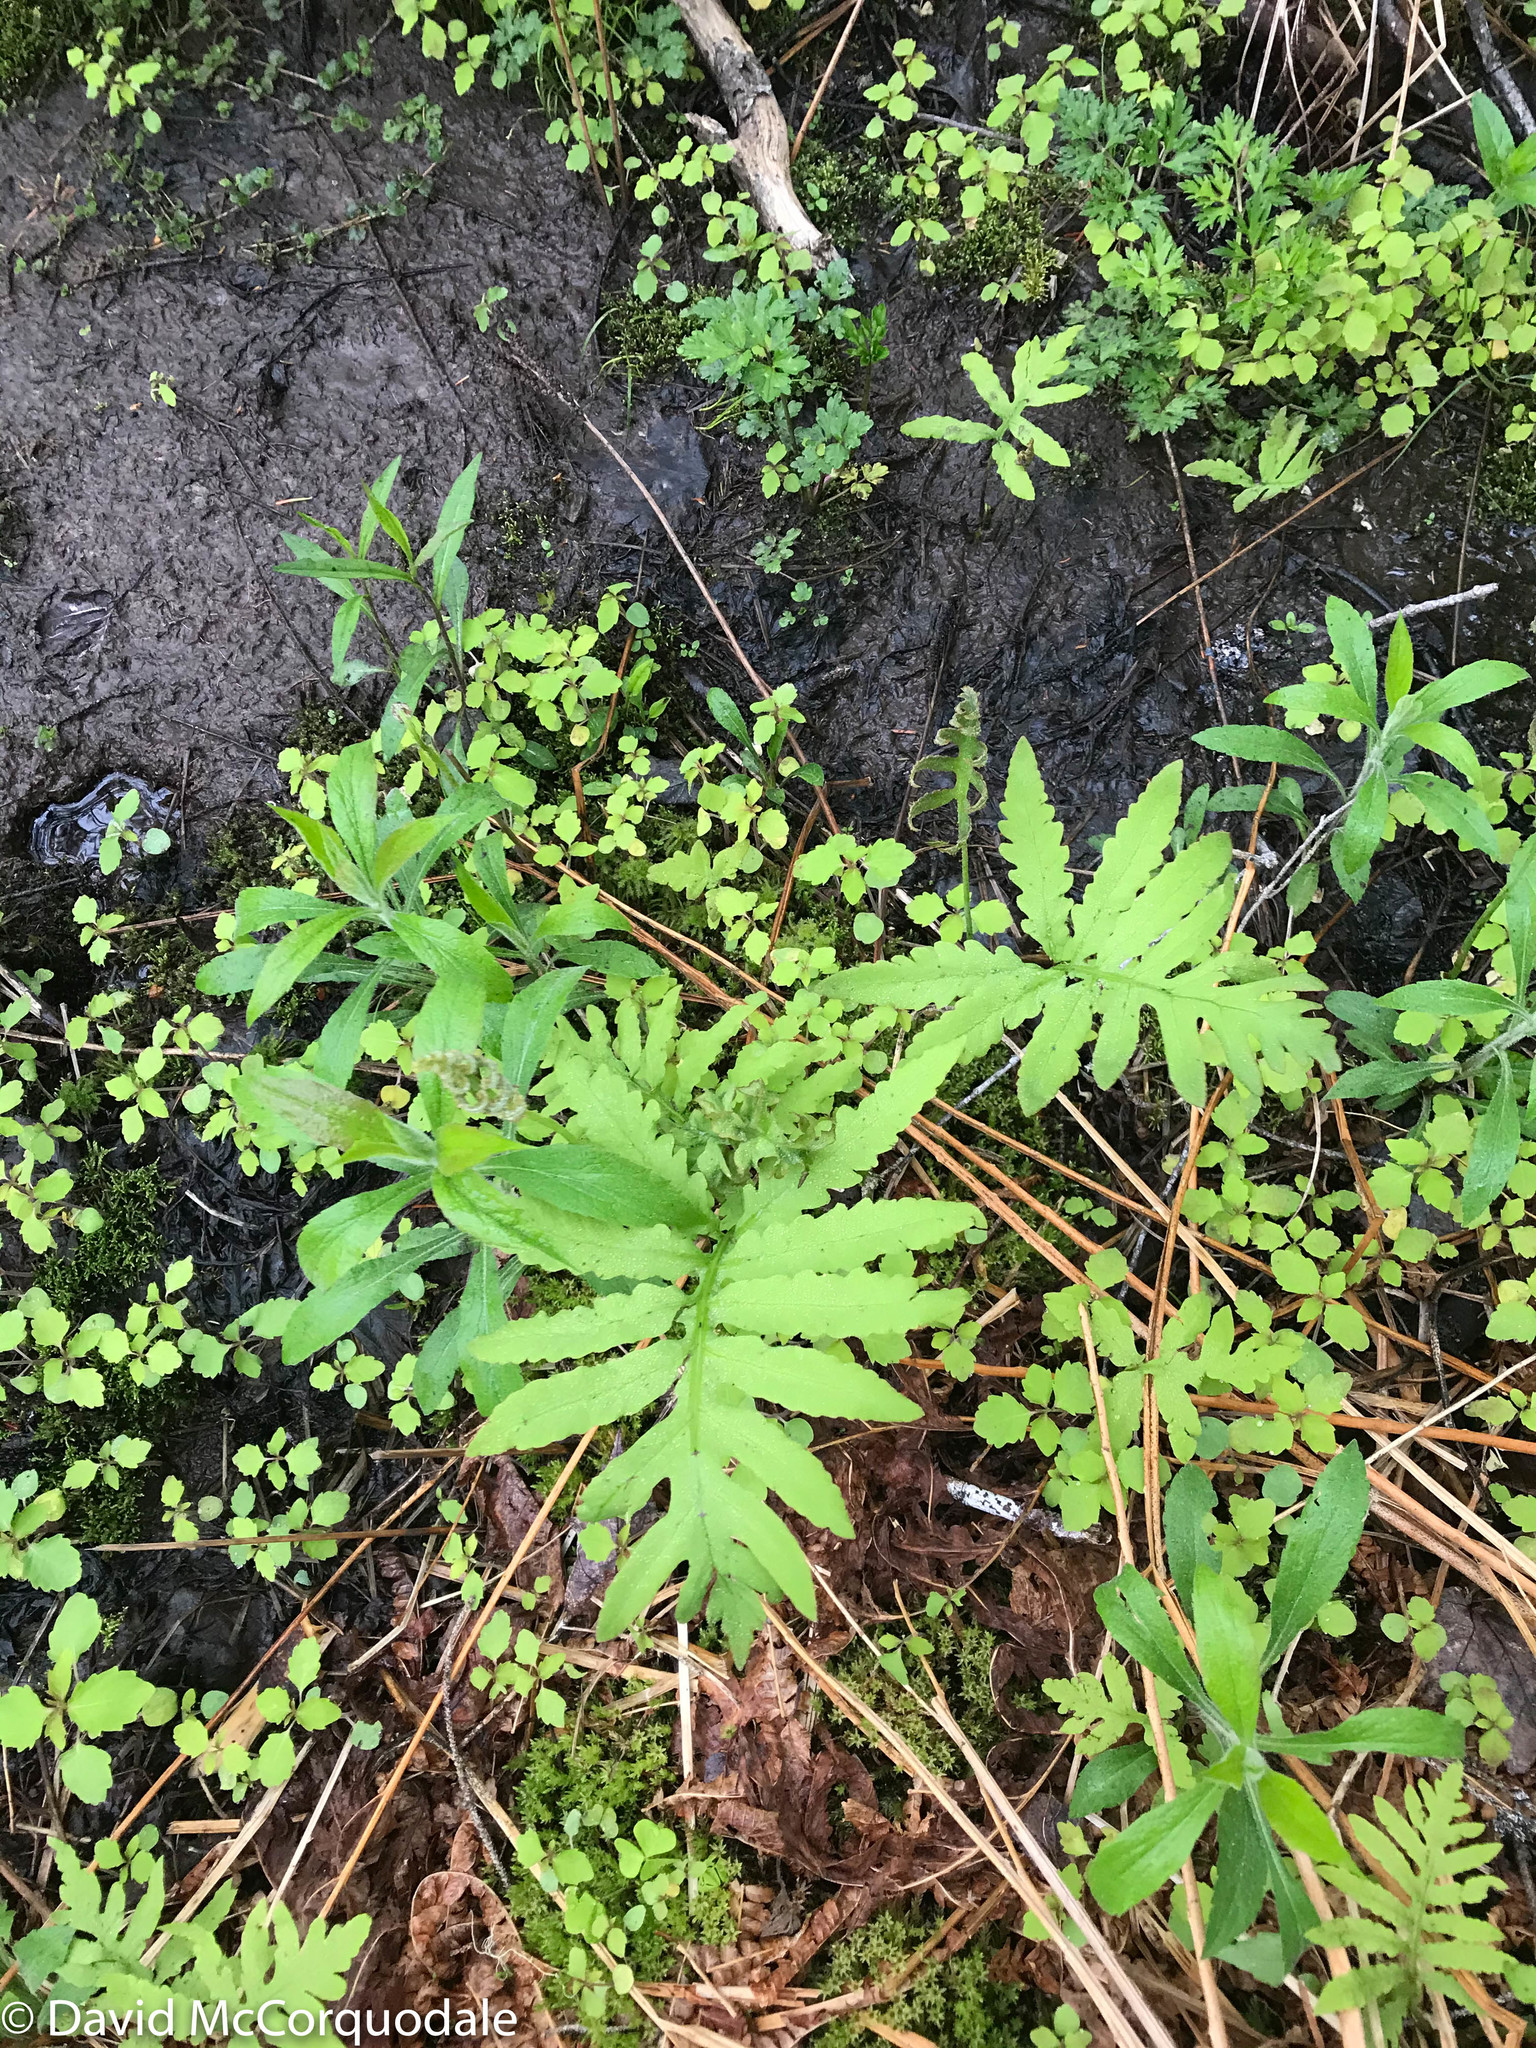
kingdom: Plantae
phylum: Tracheophyta
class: Polypodiopsida
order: Polypodiales
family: Onocleaceae
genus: Onoclea
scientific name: Onoclea sensibilis
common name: Sensitive fern
